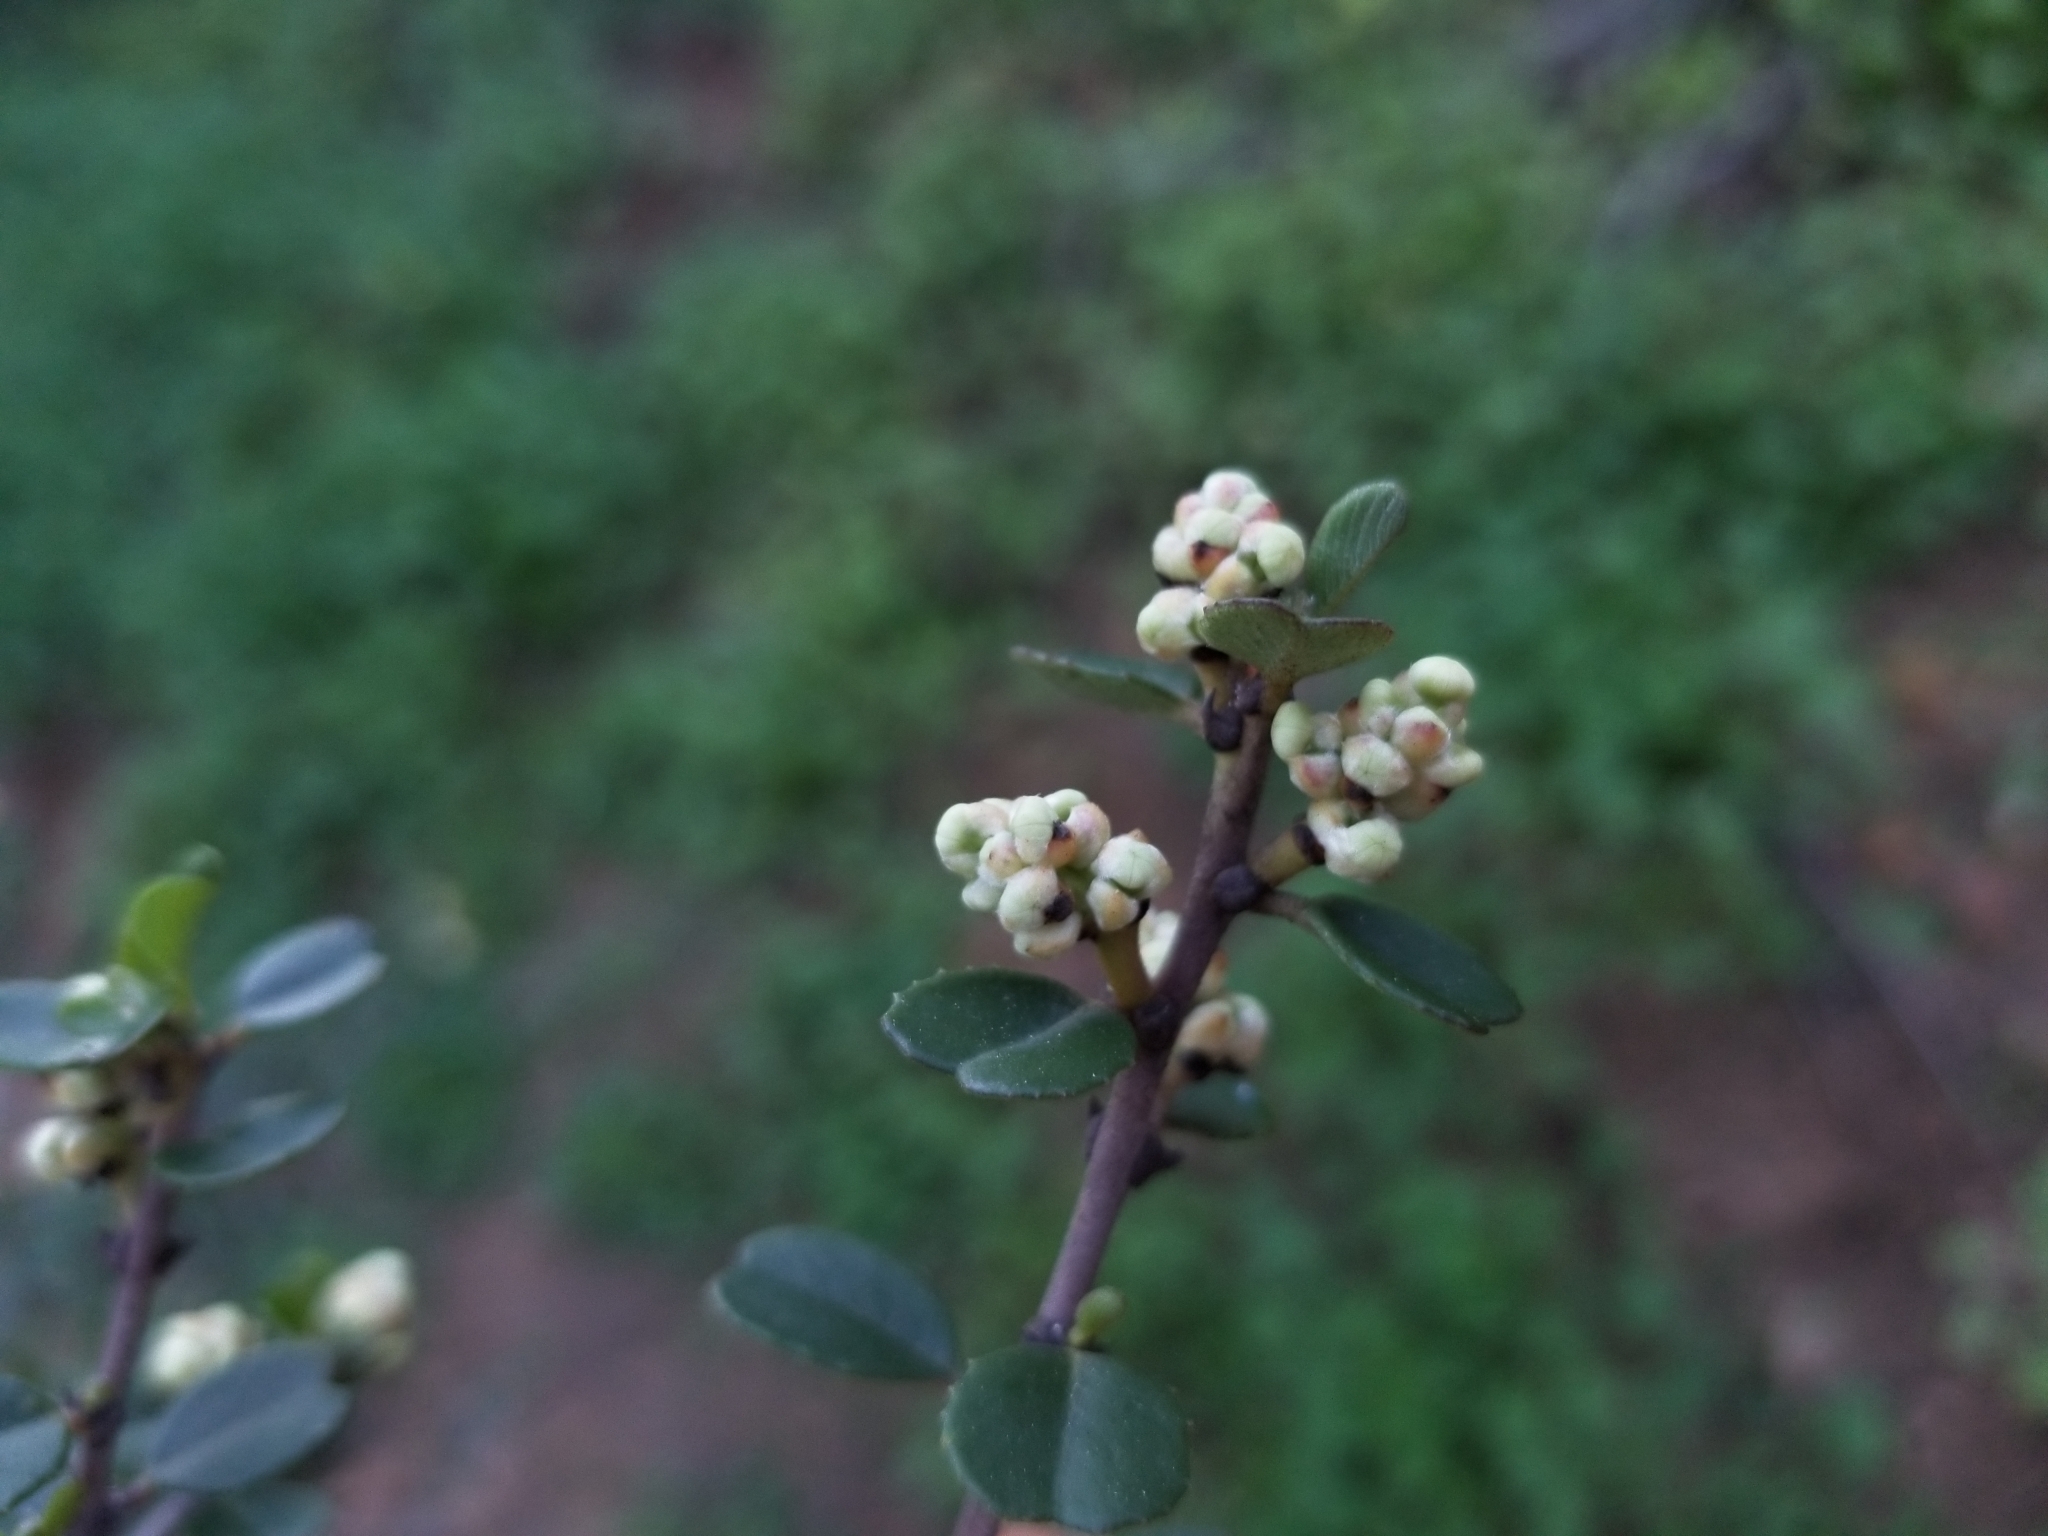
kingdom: Plantae
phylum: Tracheophyta
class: Magnoliopsida
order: Rosales
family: Rhamnaceae
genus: Ceanothus
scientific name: Ceanothus verrucosus
